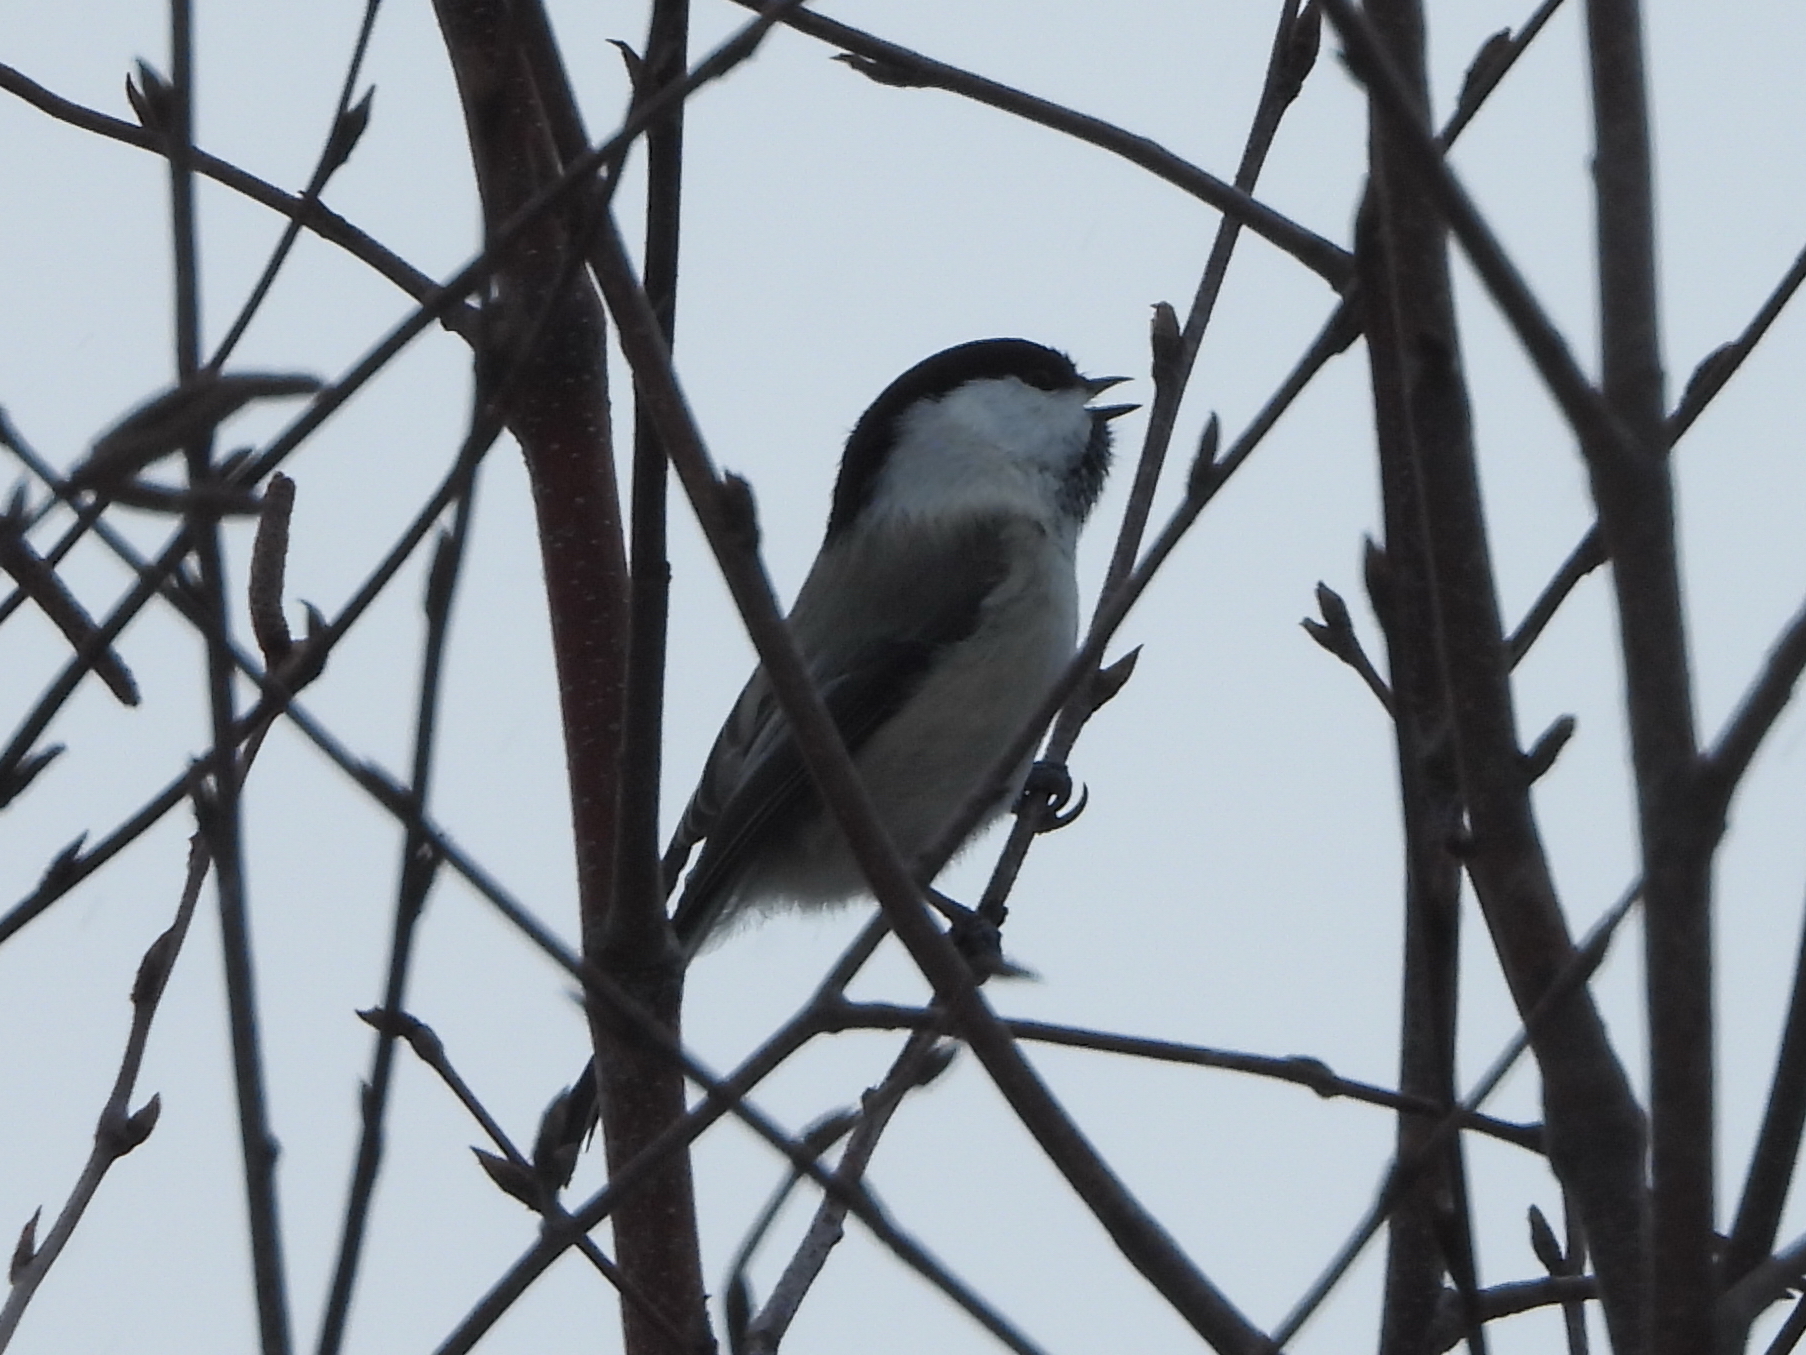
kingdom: Animalia
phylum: Chordata
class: Aves
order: Passeriformes
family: Paridae
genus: Poecile
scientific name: Poecile montanus
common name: Willow tit
